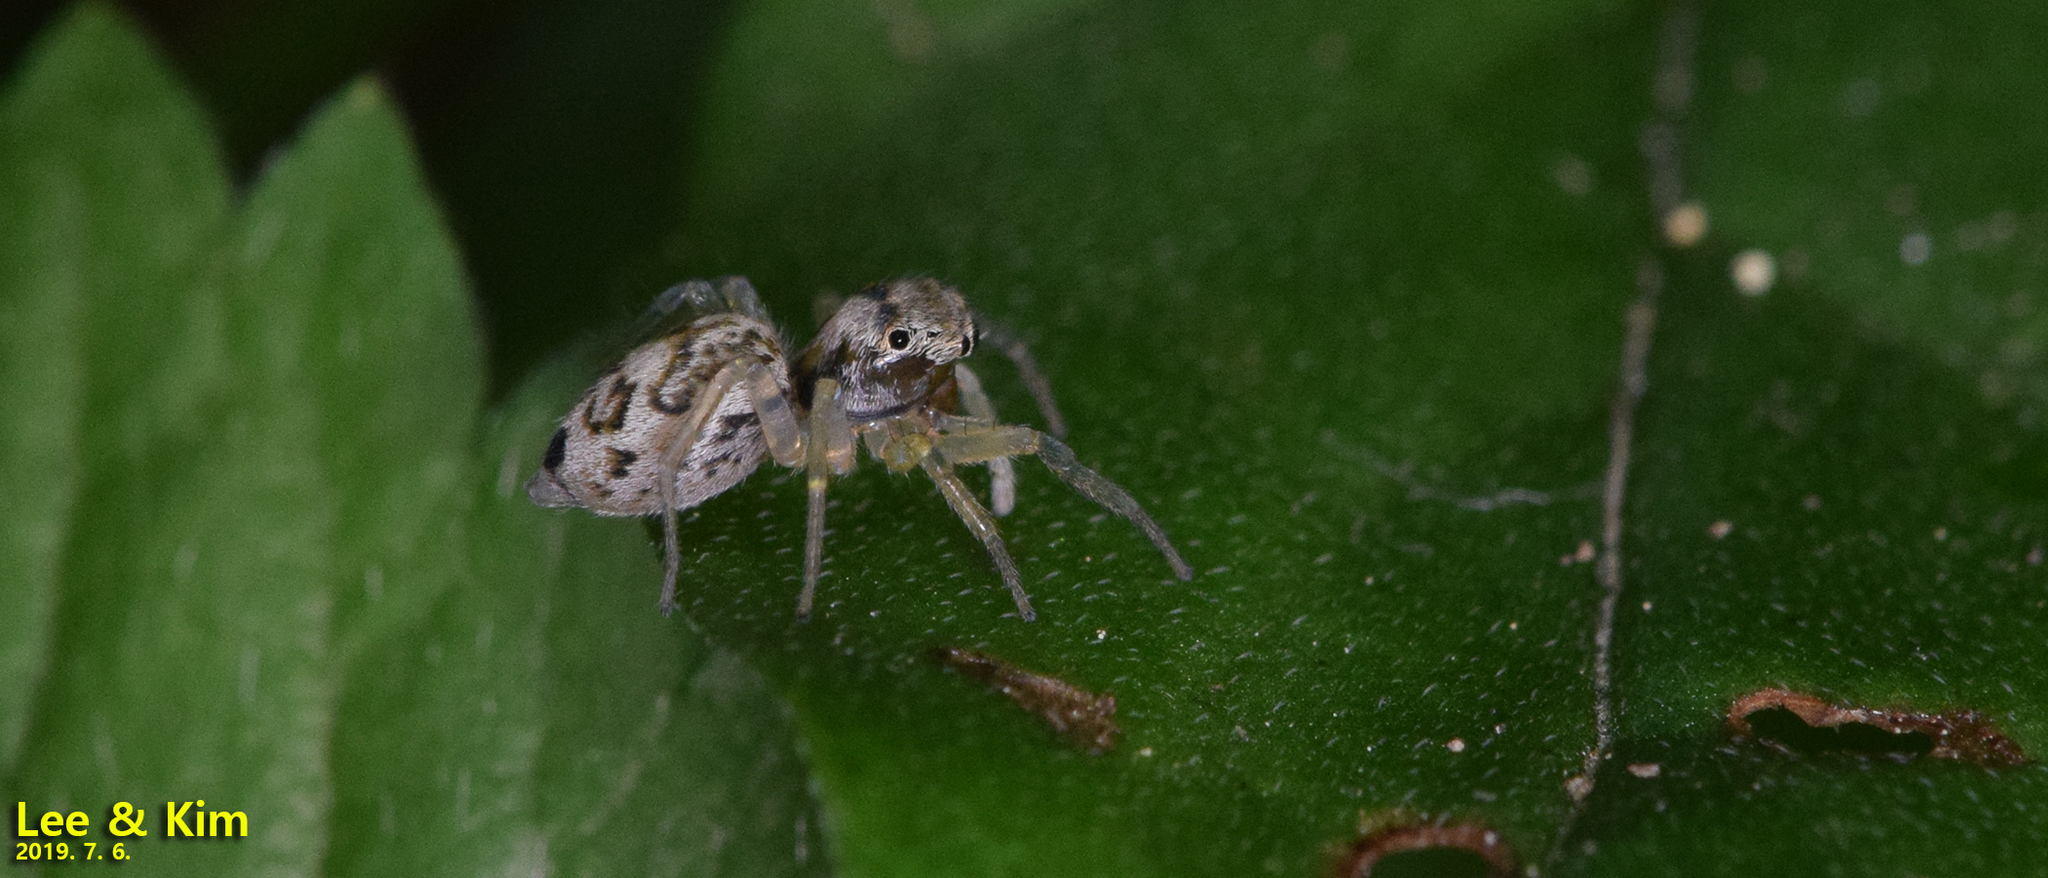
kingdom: Animalia
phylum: Arthropoda
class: Arachnida
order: Araneae
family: Salticidae
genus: Phintella
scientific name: Phintella cavaleriei
